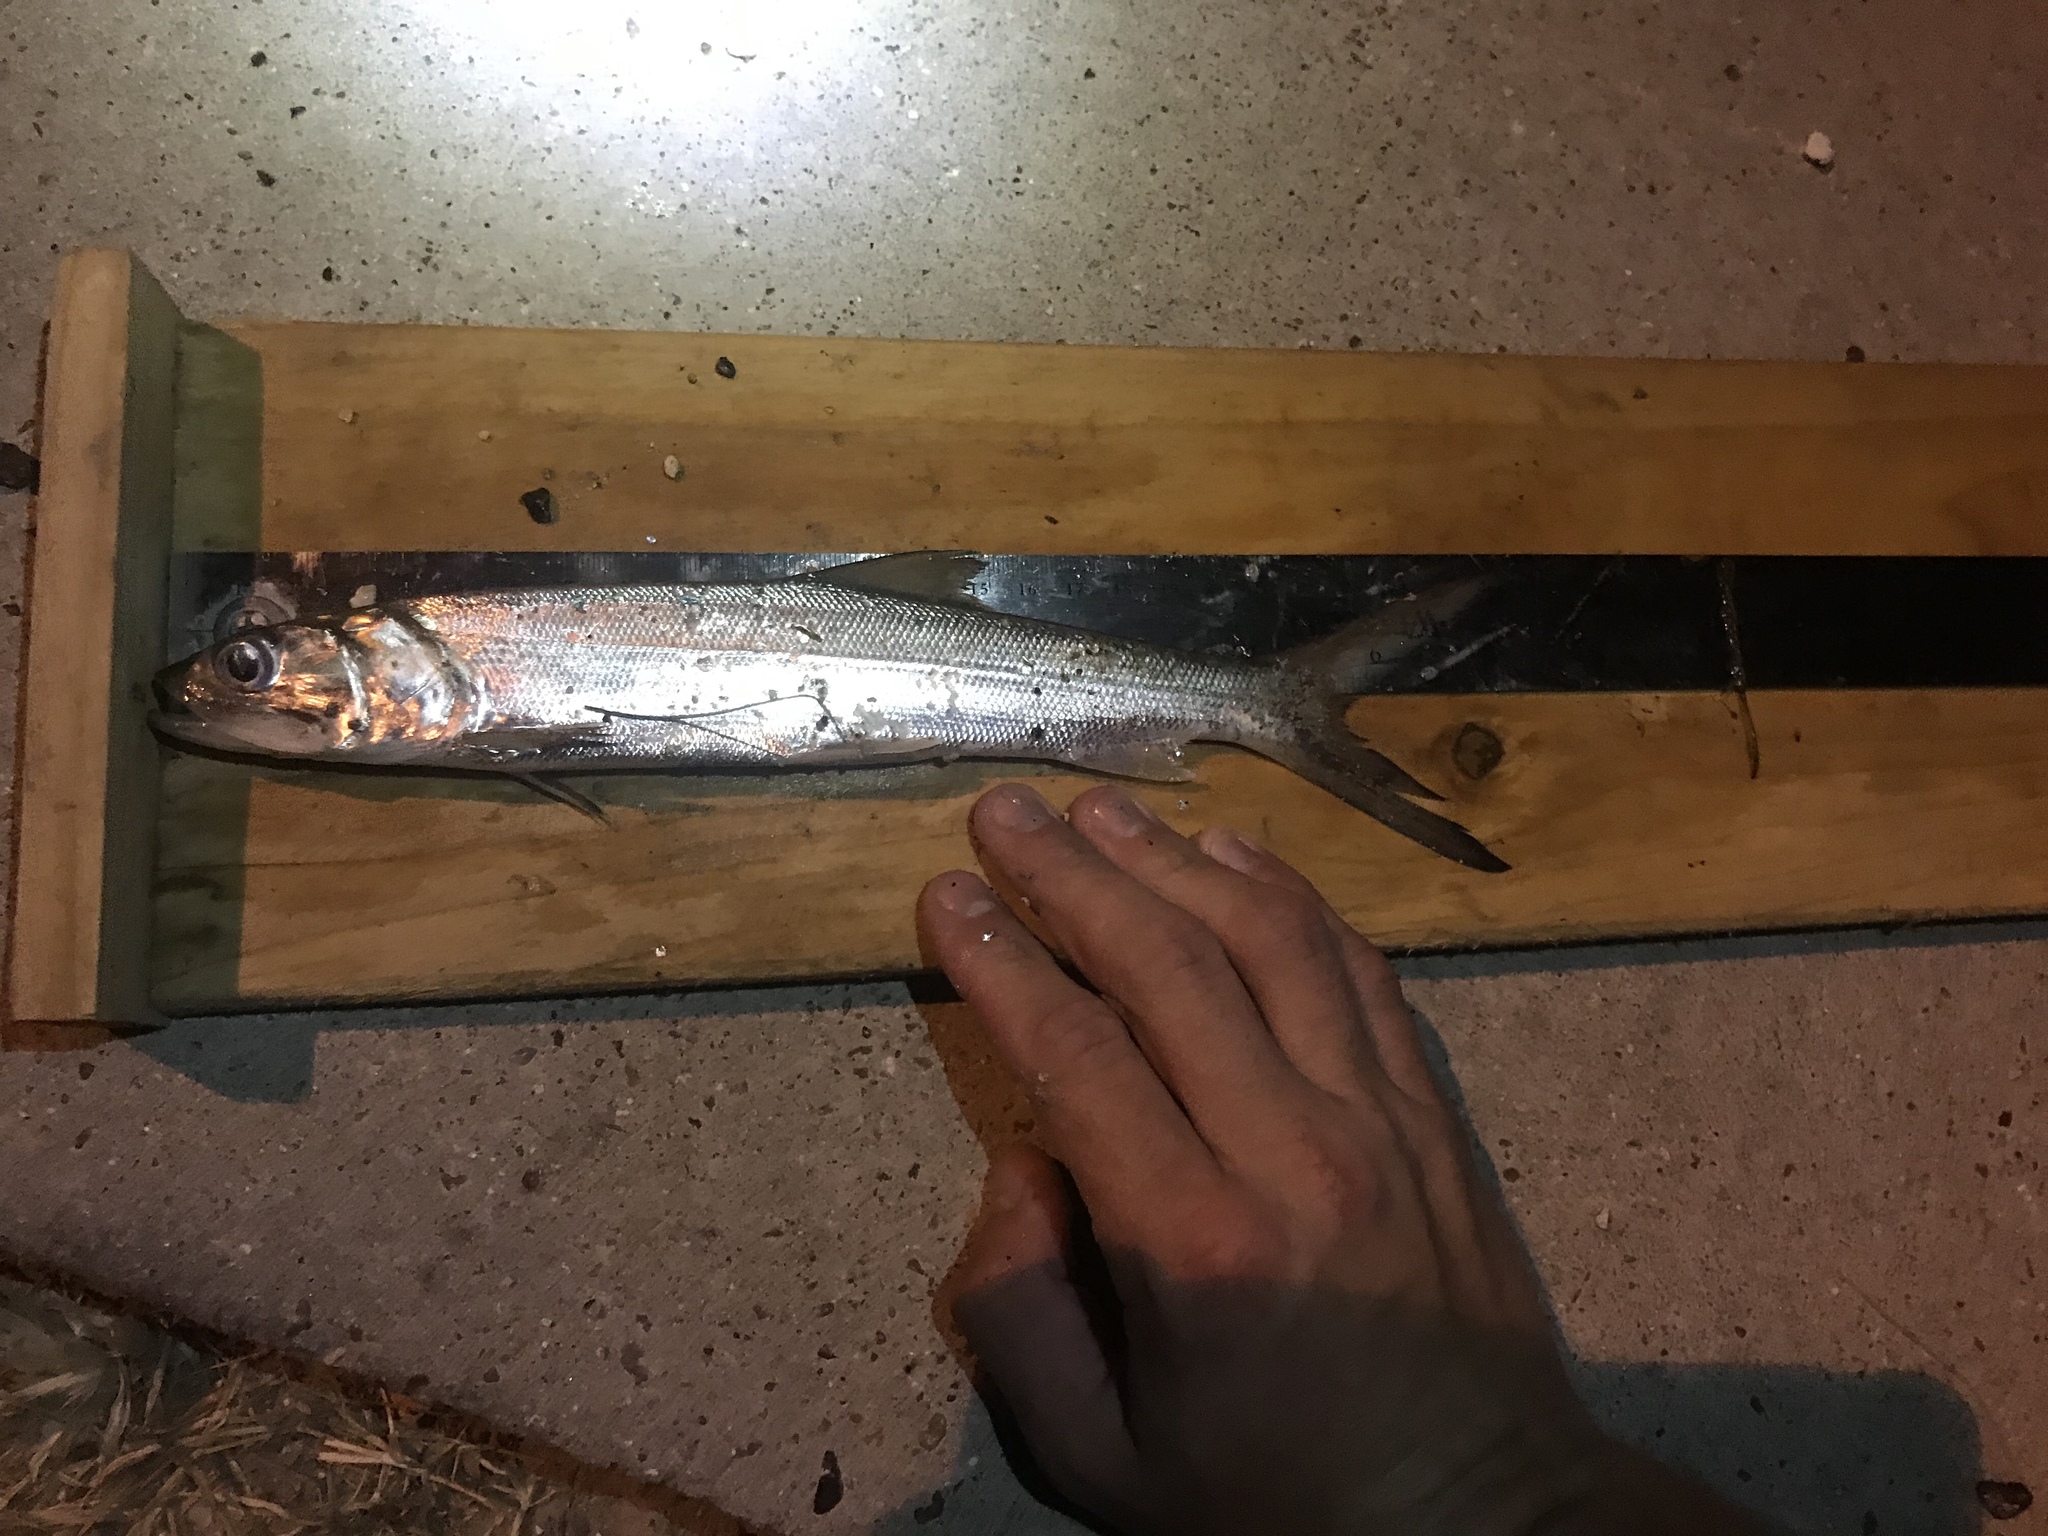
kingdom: Animalia
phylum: Chordata
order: Elopiformes
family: Elopidae
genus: Elops
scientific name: Elops saurus
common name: Ladyfish
